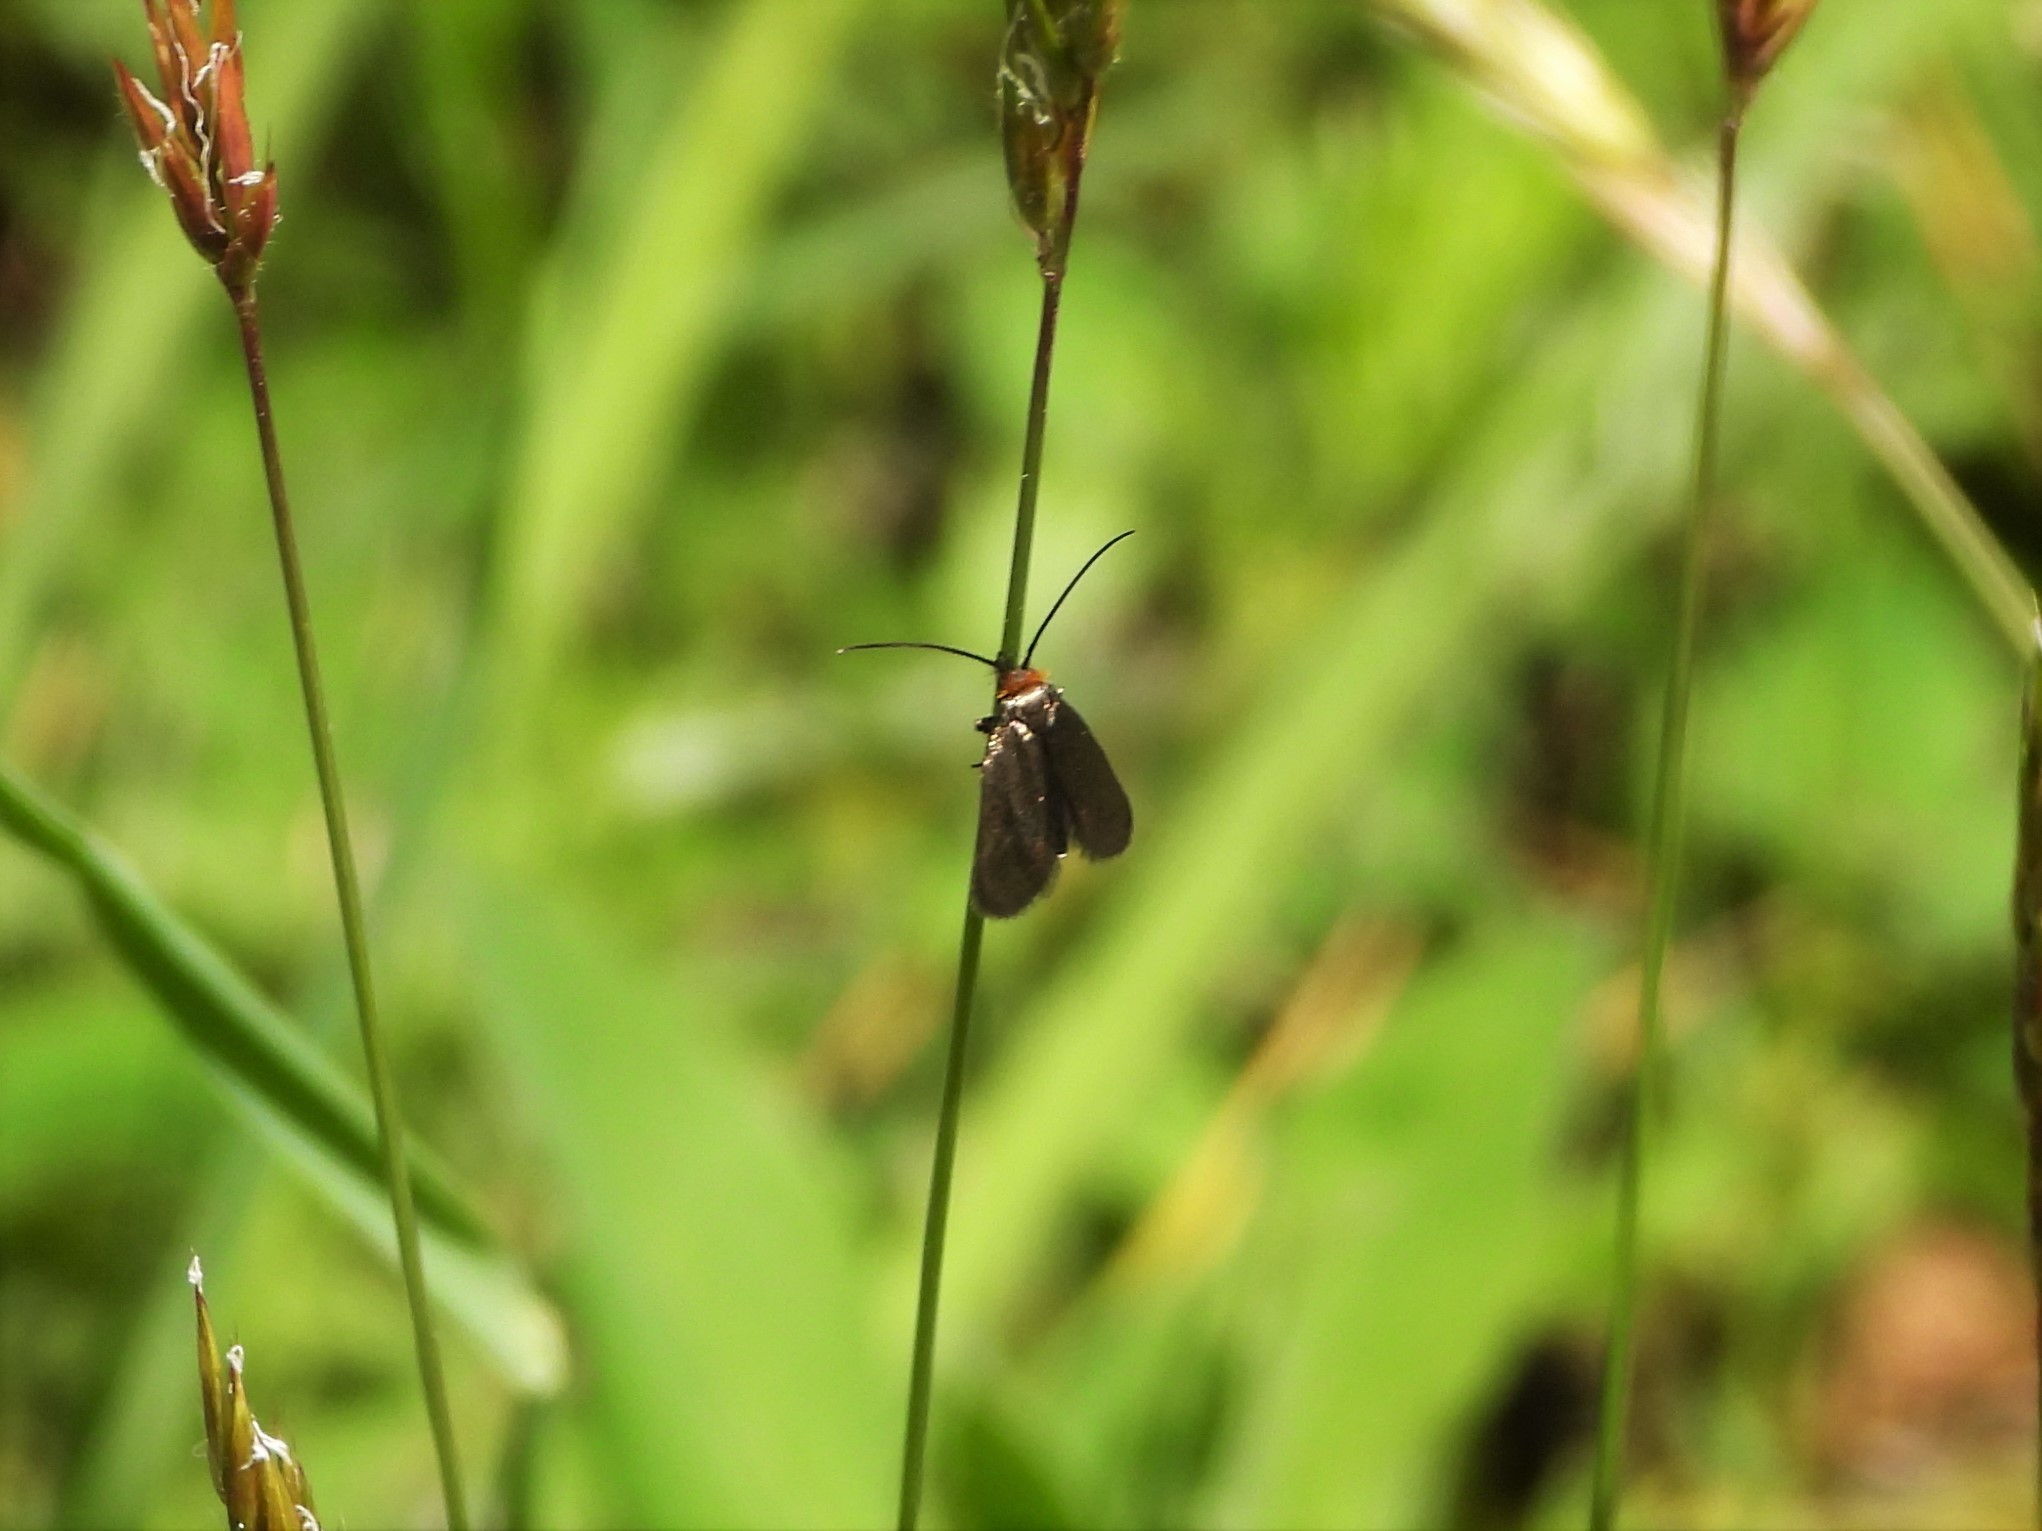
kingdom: Animalia
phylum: Arthropoda
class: Insecta
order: Lepidoptera
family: Adelidae
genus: Cauchas
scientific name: Cauchas rufifrontella
